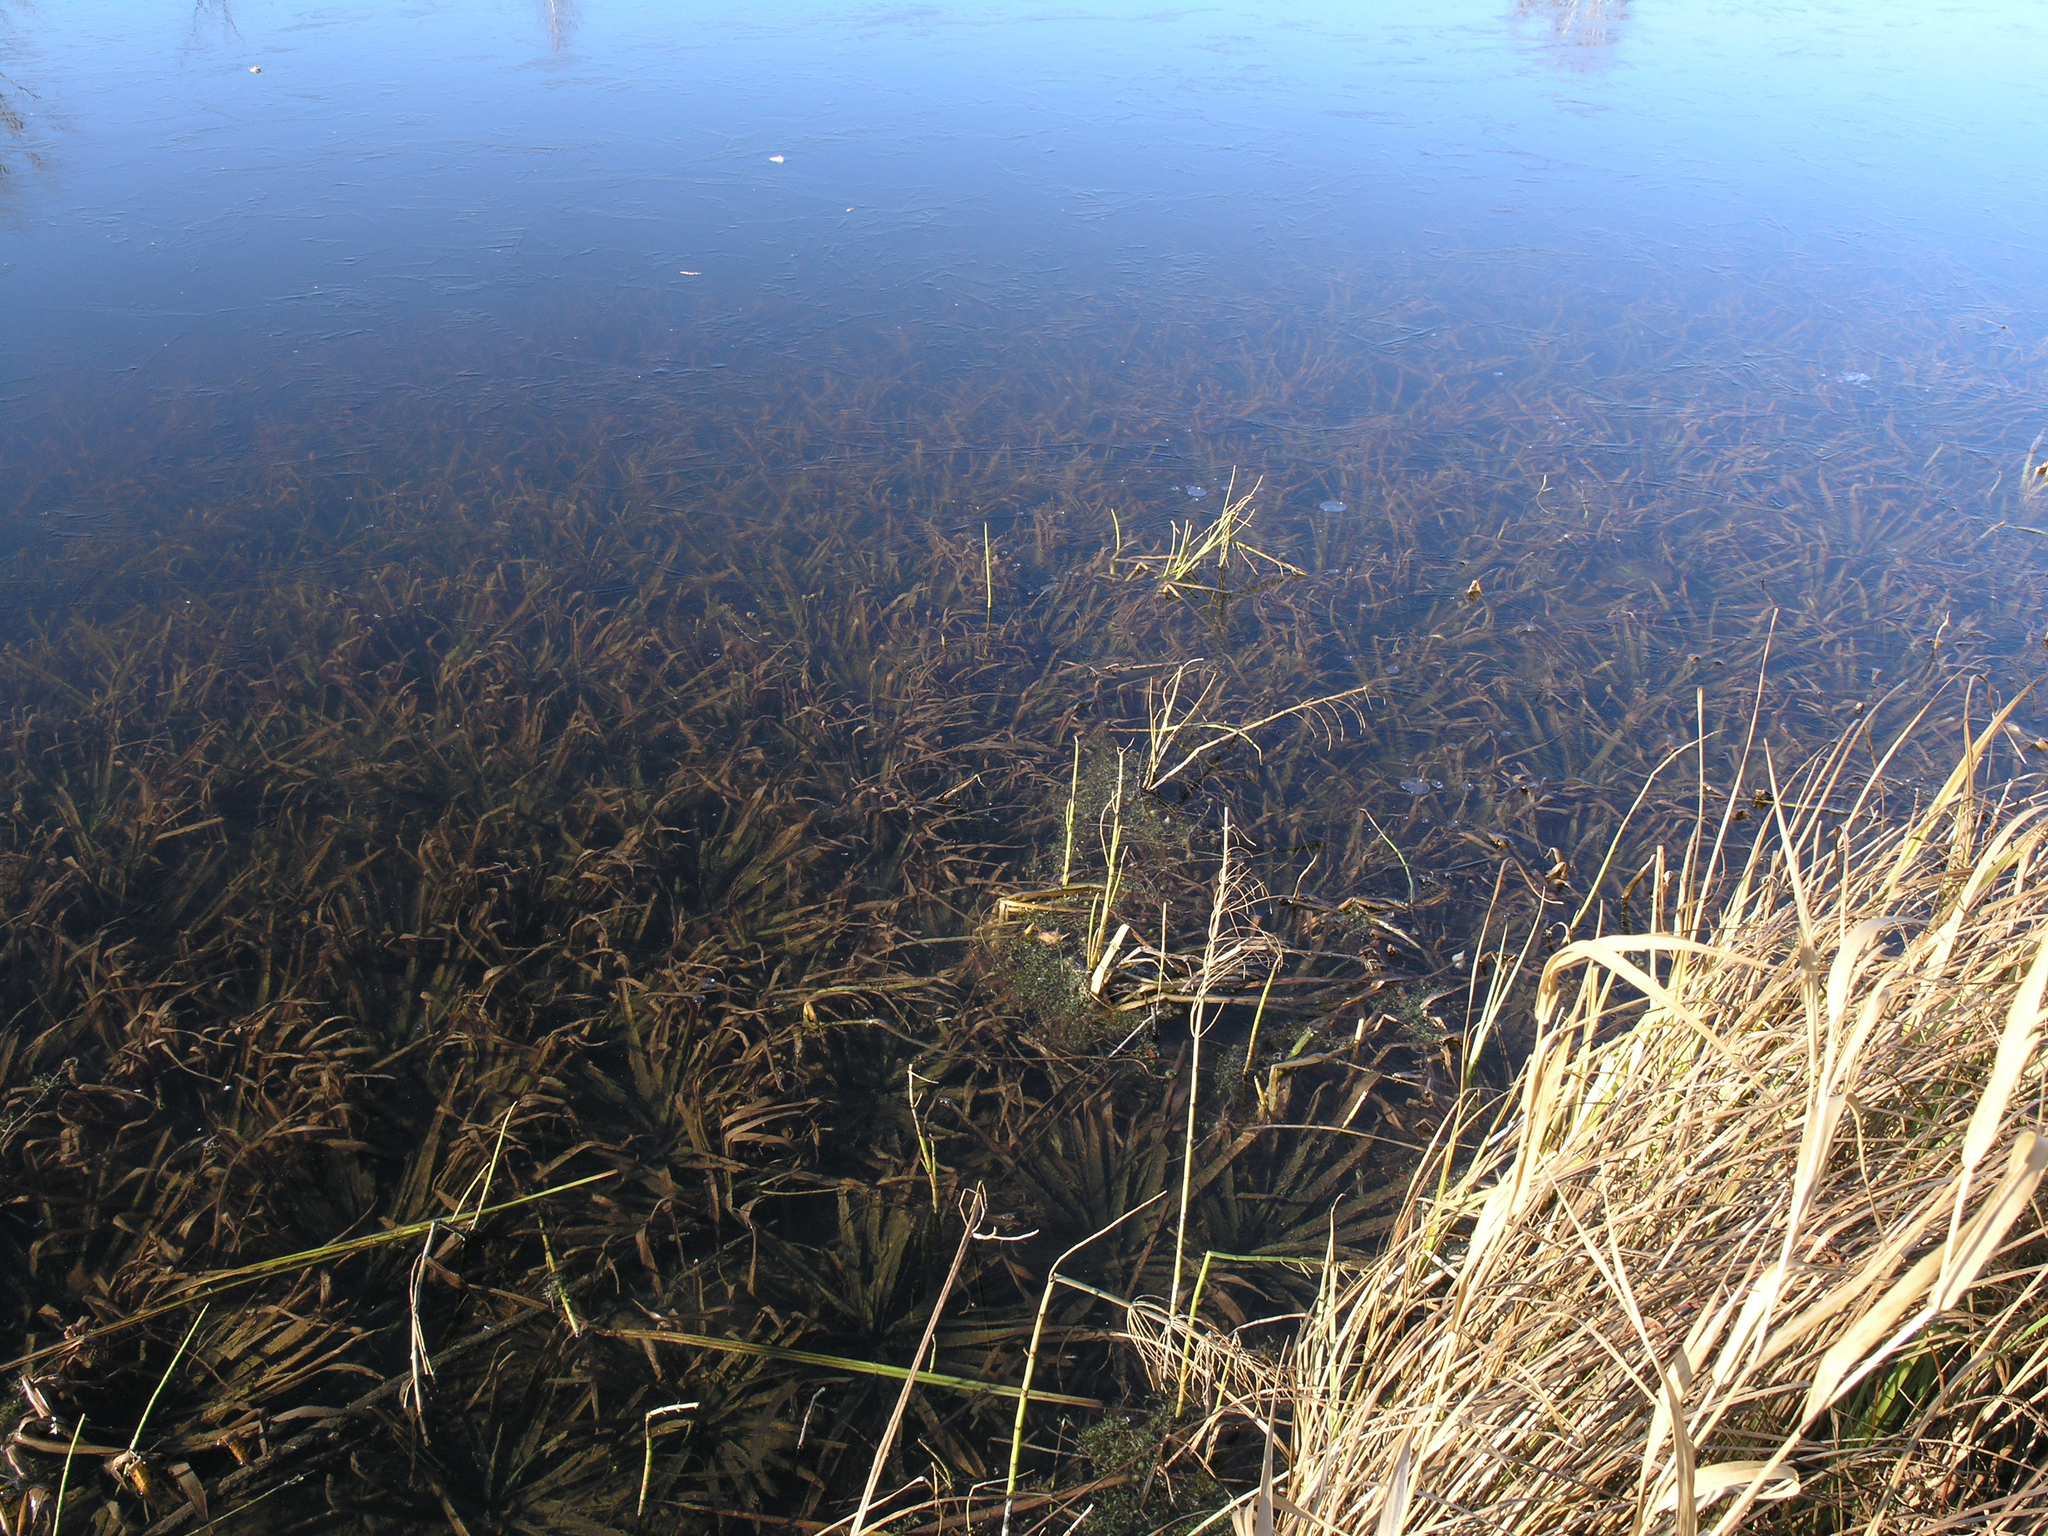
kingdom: Plantae
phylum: Tracheophyta
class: Liliopsida
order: Alismatales
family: Hydrocharitaceae
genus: Stratiotes
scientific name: Stratiotes aloides
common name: Water-soldier
